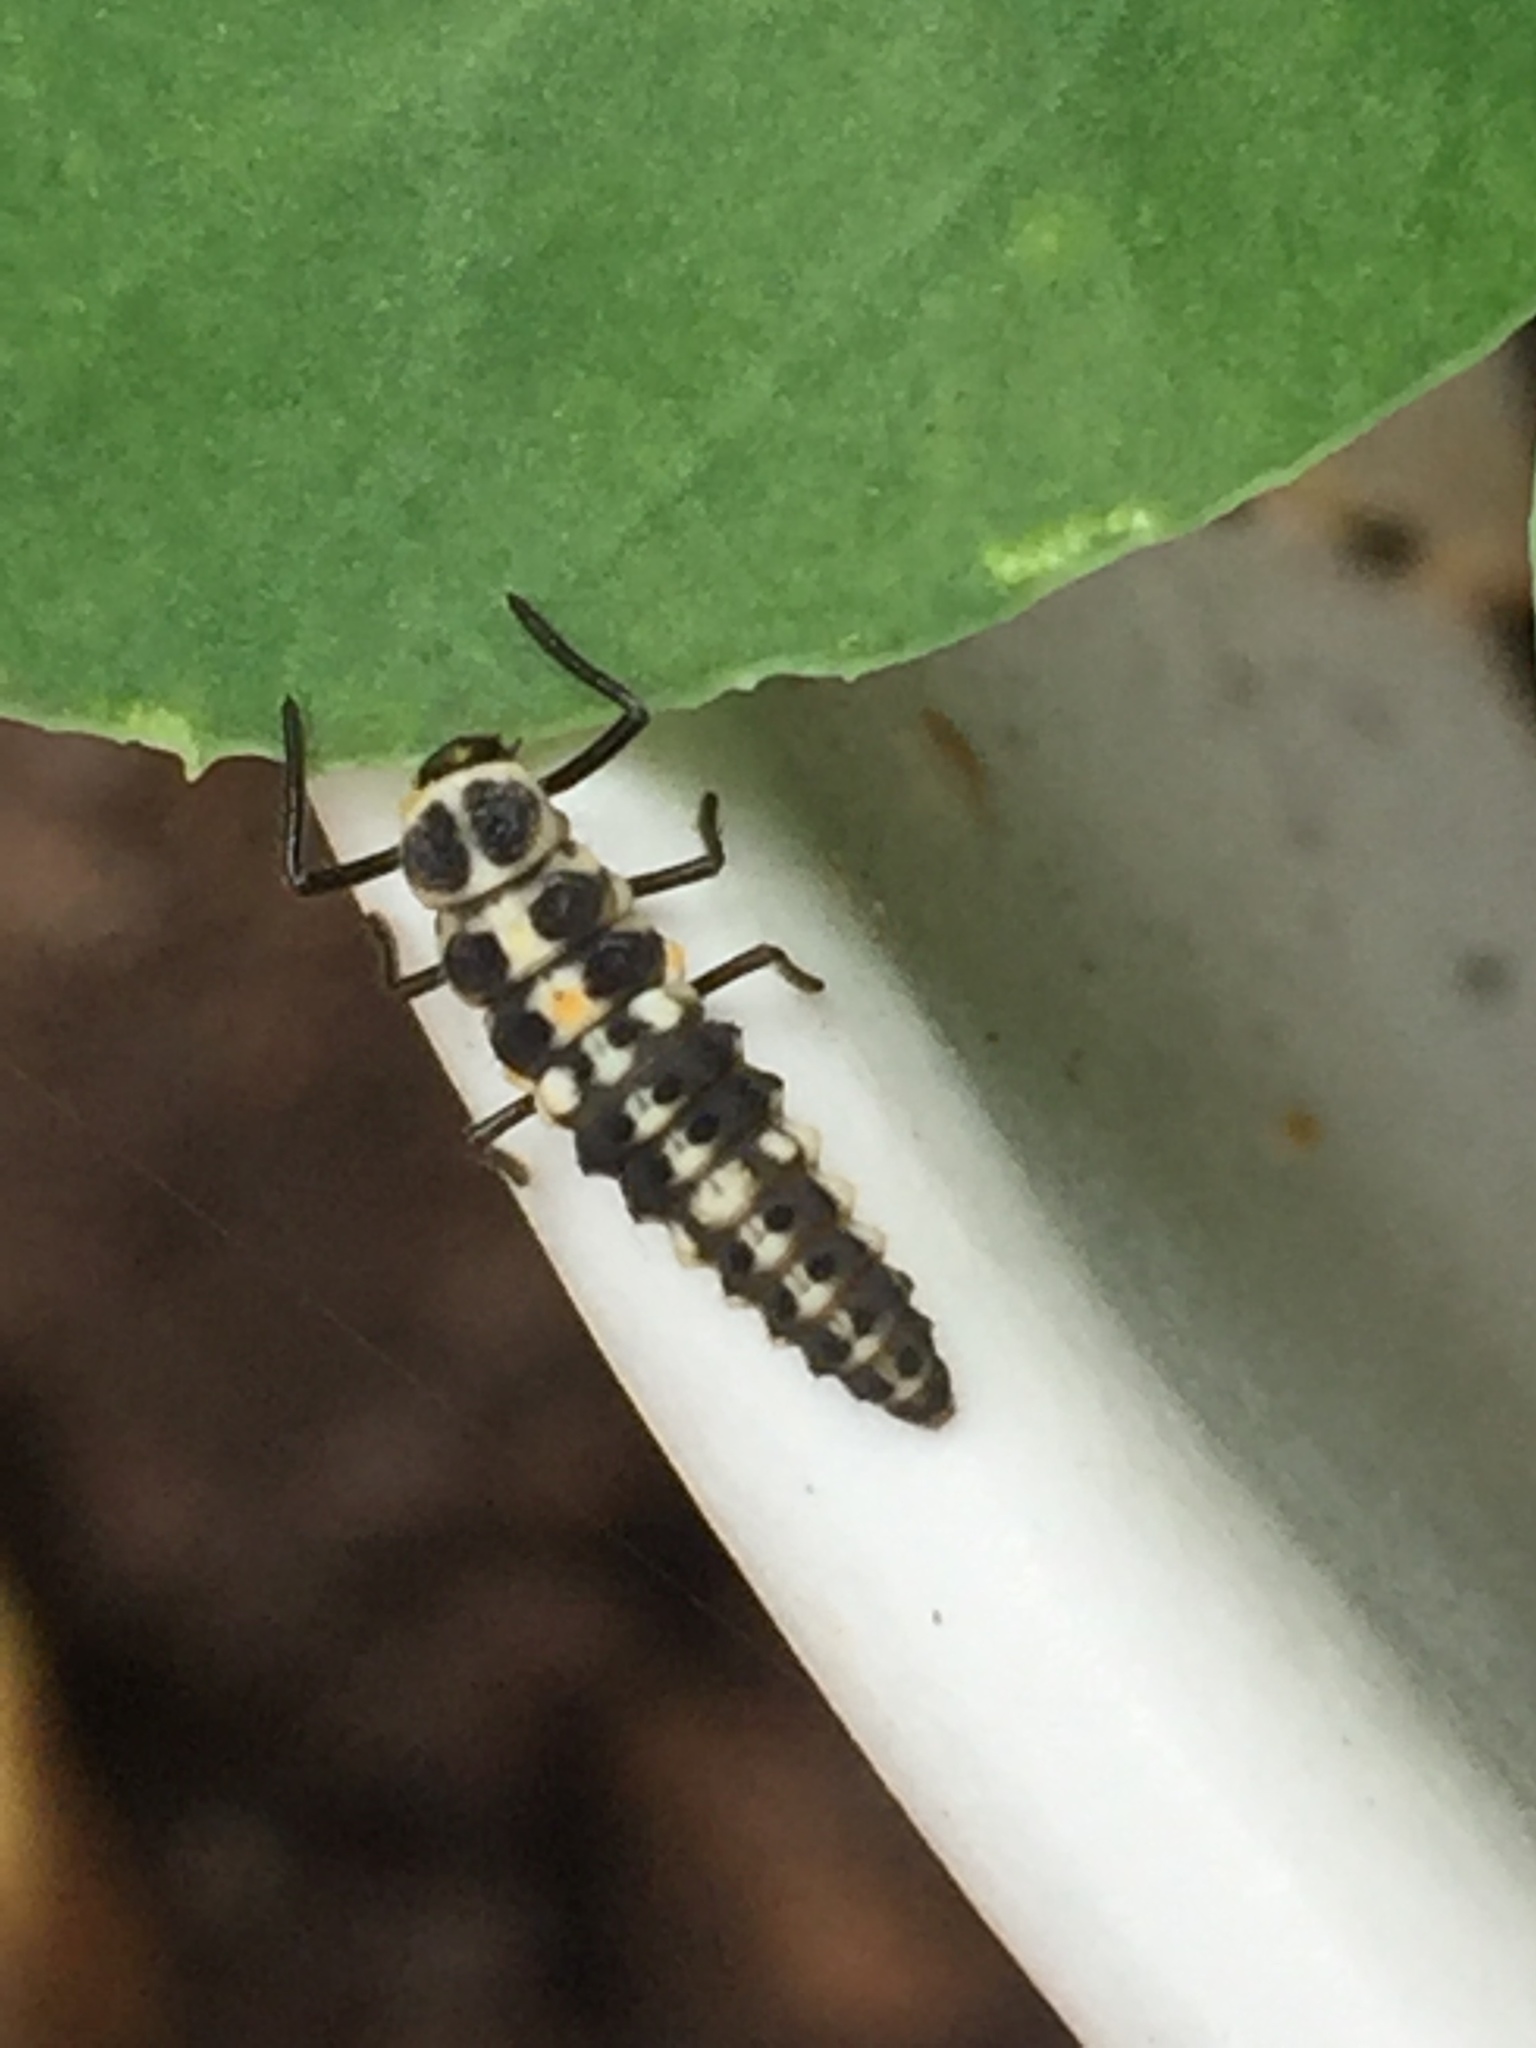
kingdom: Animalia
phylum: Arthropoda
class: Insecta
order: Coleoptera
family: Coccinellidae
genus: Cycloneda
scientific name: Cycloneda polita
